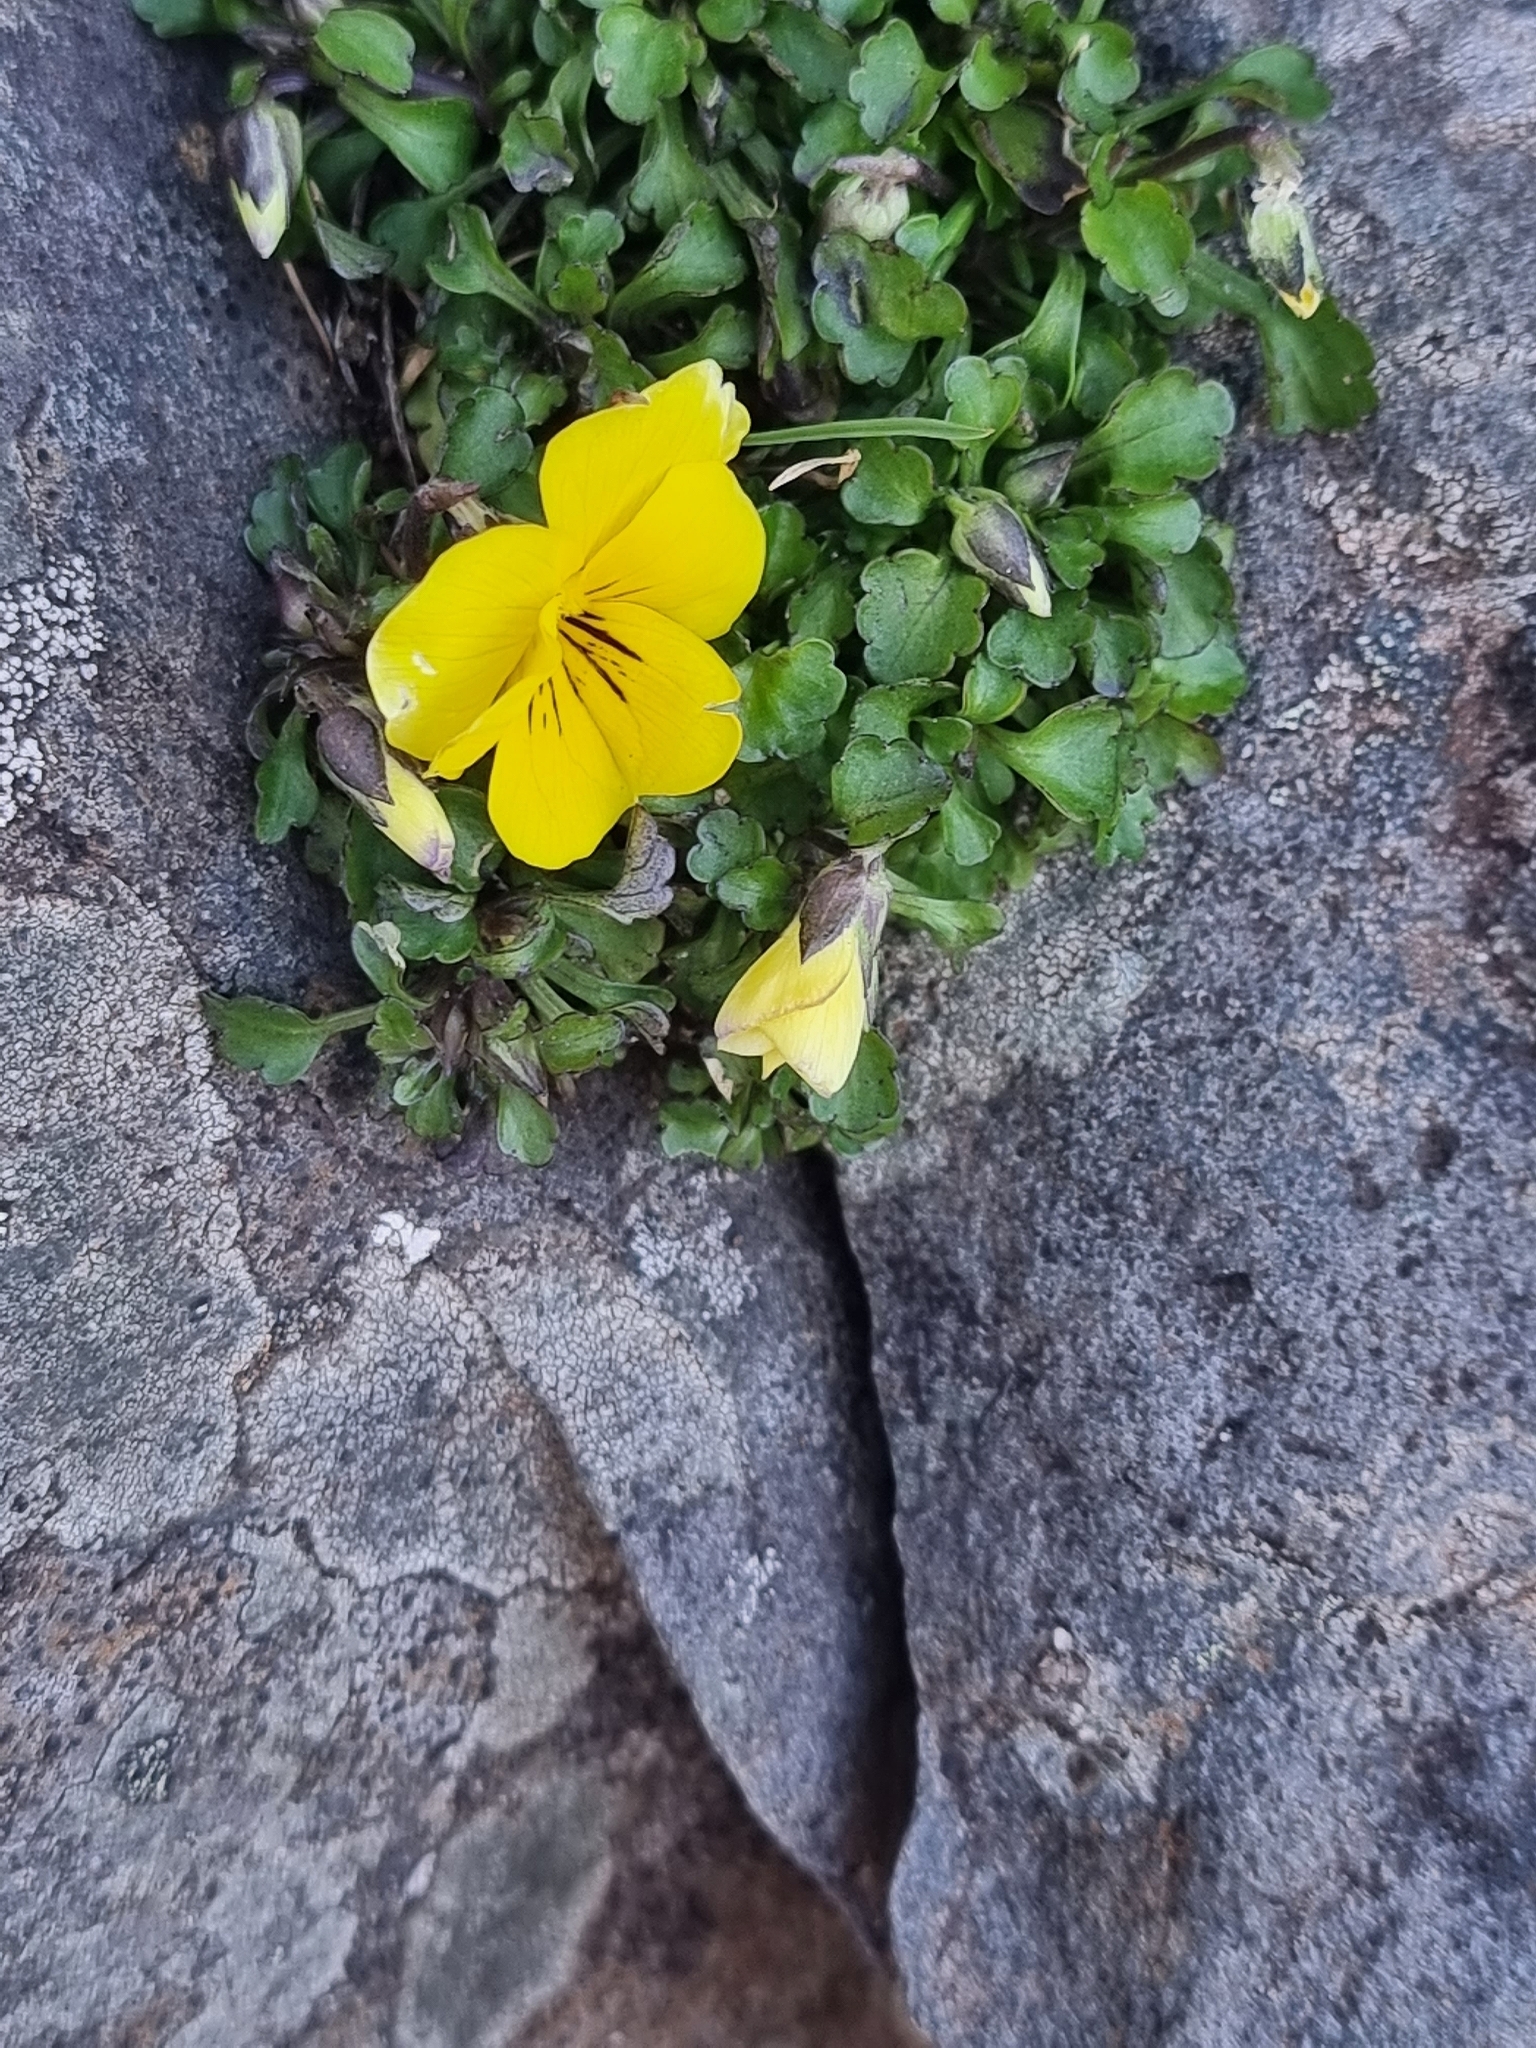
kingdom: Plantae
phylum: Tracheophyta
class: Magnoliopsida
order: Malpighiales
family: Violaceae
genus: Viola
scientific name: Viola paradoxa
